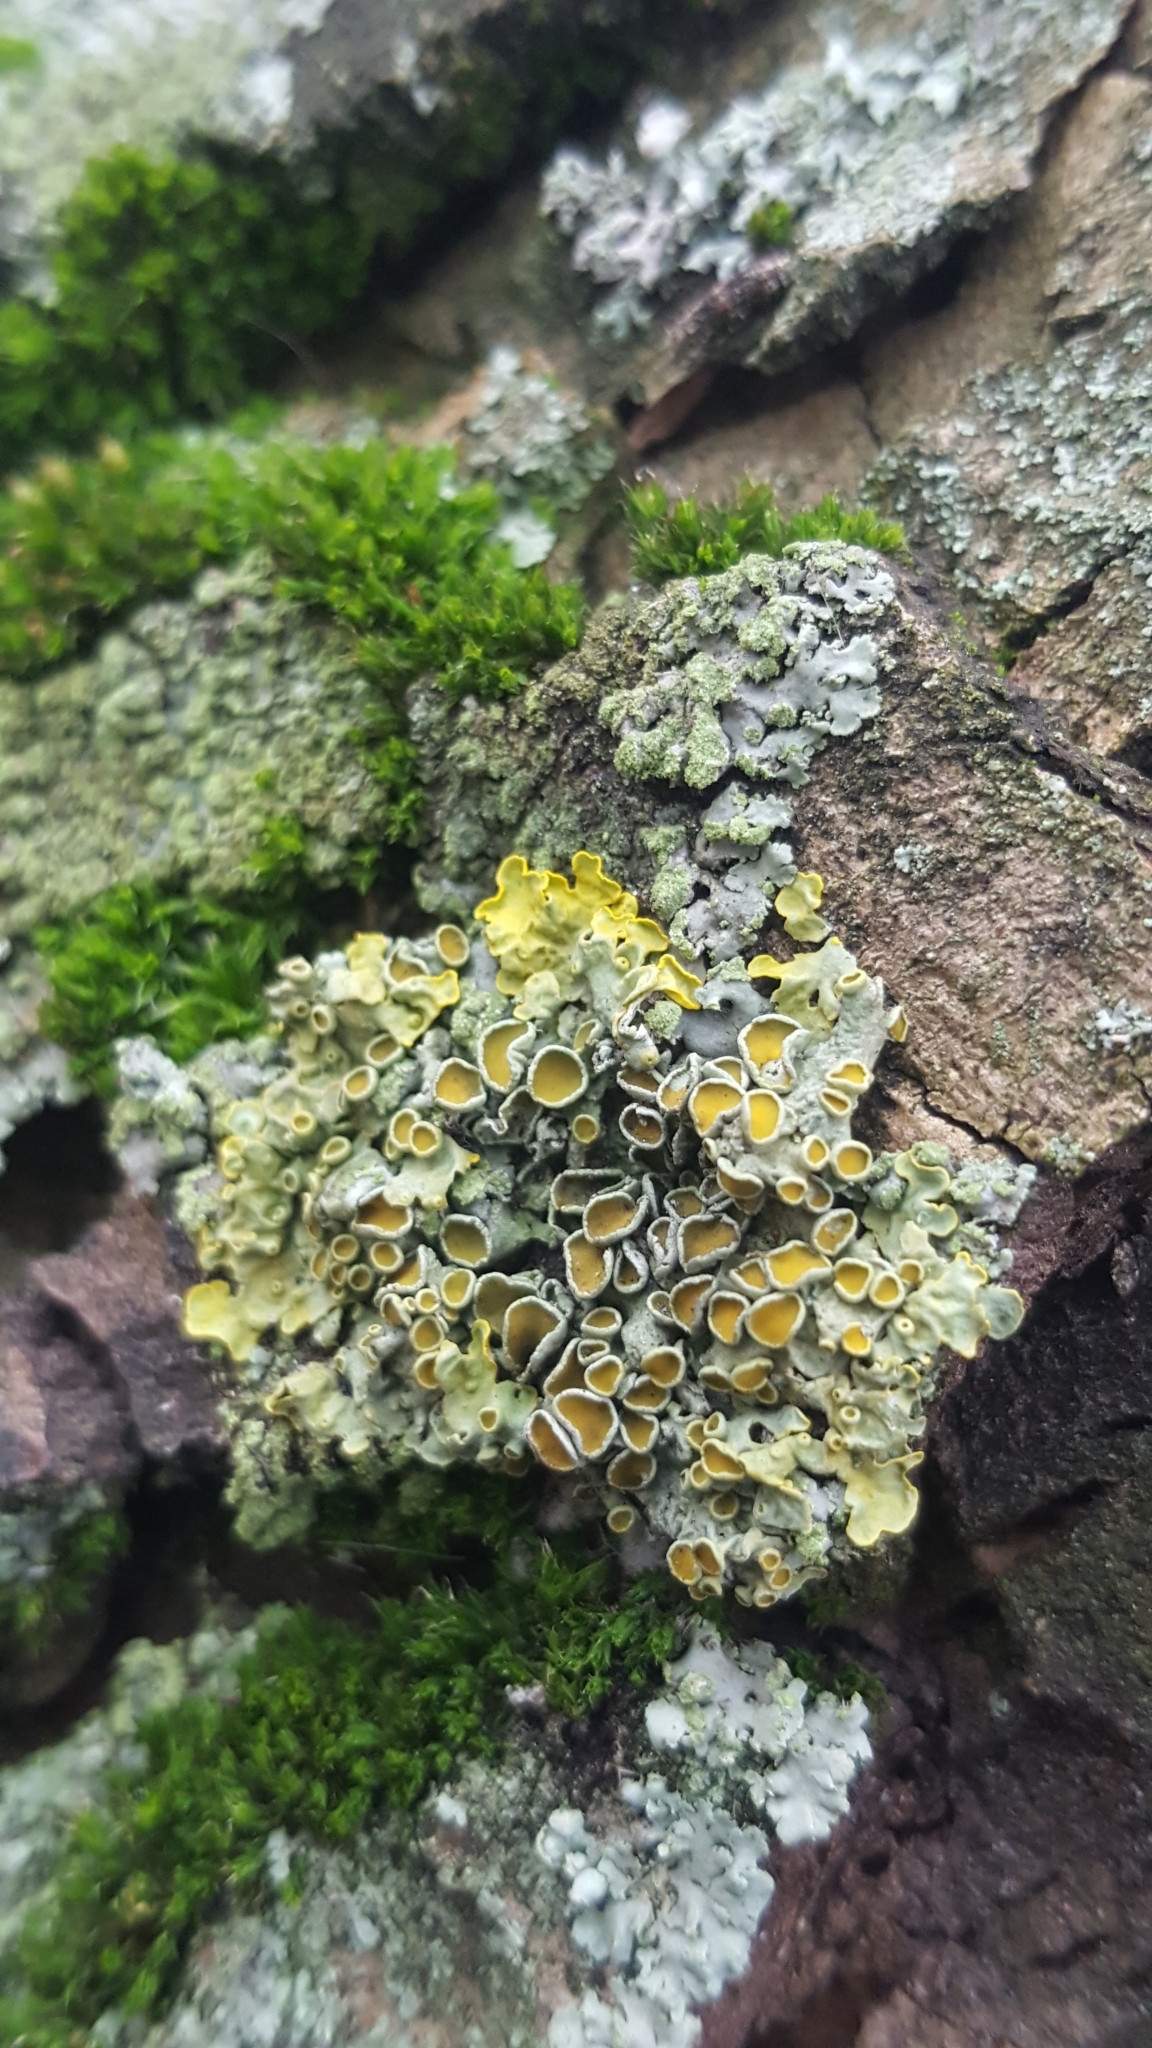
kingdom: Fungi
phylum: Ascomycota
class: Lecanoromycetes
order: Teloschistales
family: Teloschistaceae
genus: Xanthoria
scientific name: Xanthoria parietina
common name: Common orange lichen
